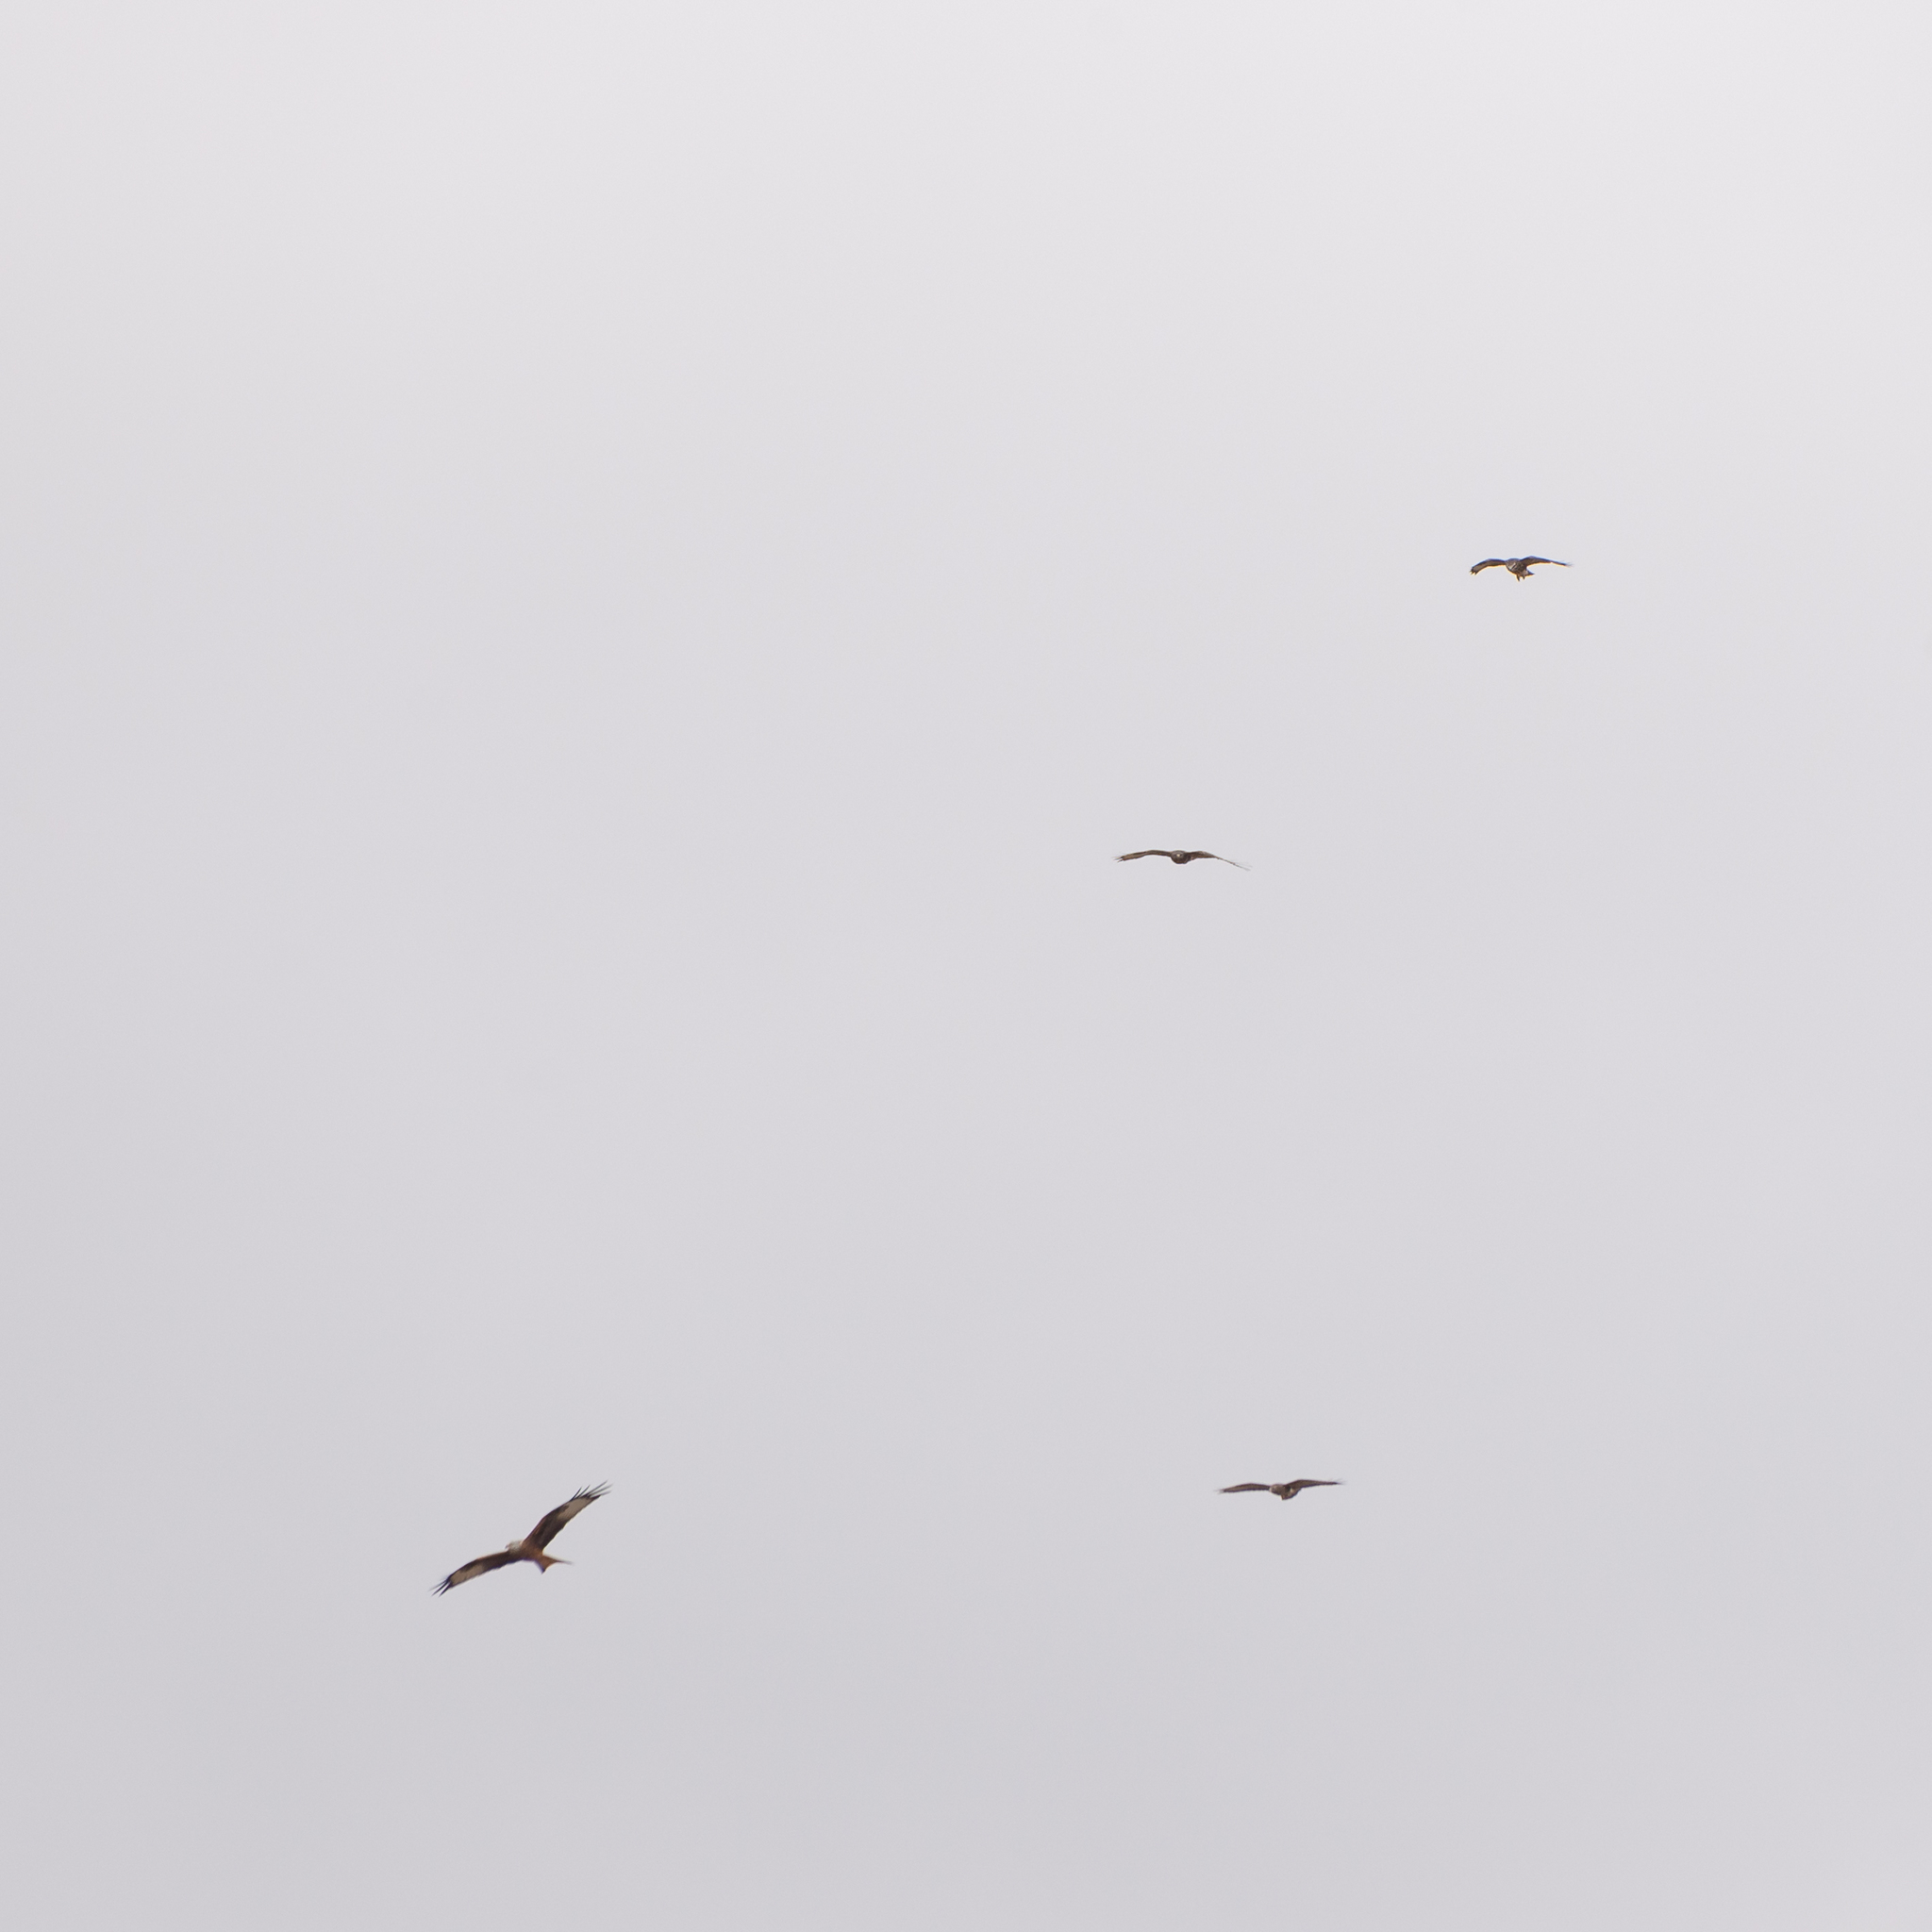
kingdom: Animalia
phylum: Chordata
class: Aves
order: Accipitriformes
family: Accipitridae
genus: Buteo
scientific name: Buteo buteo
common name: Common buzzard
